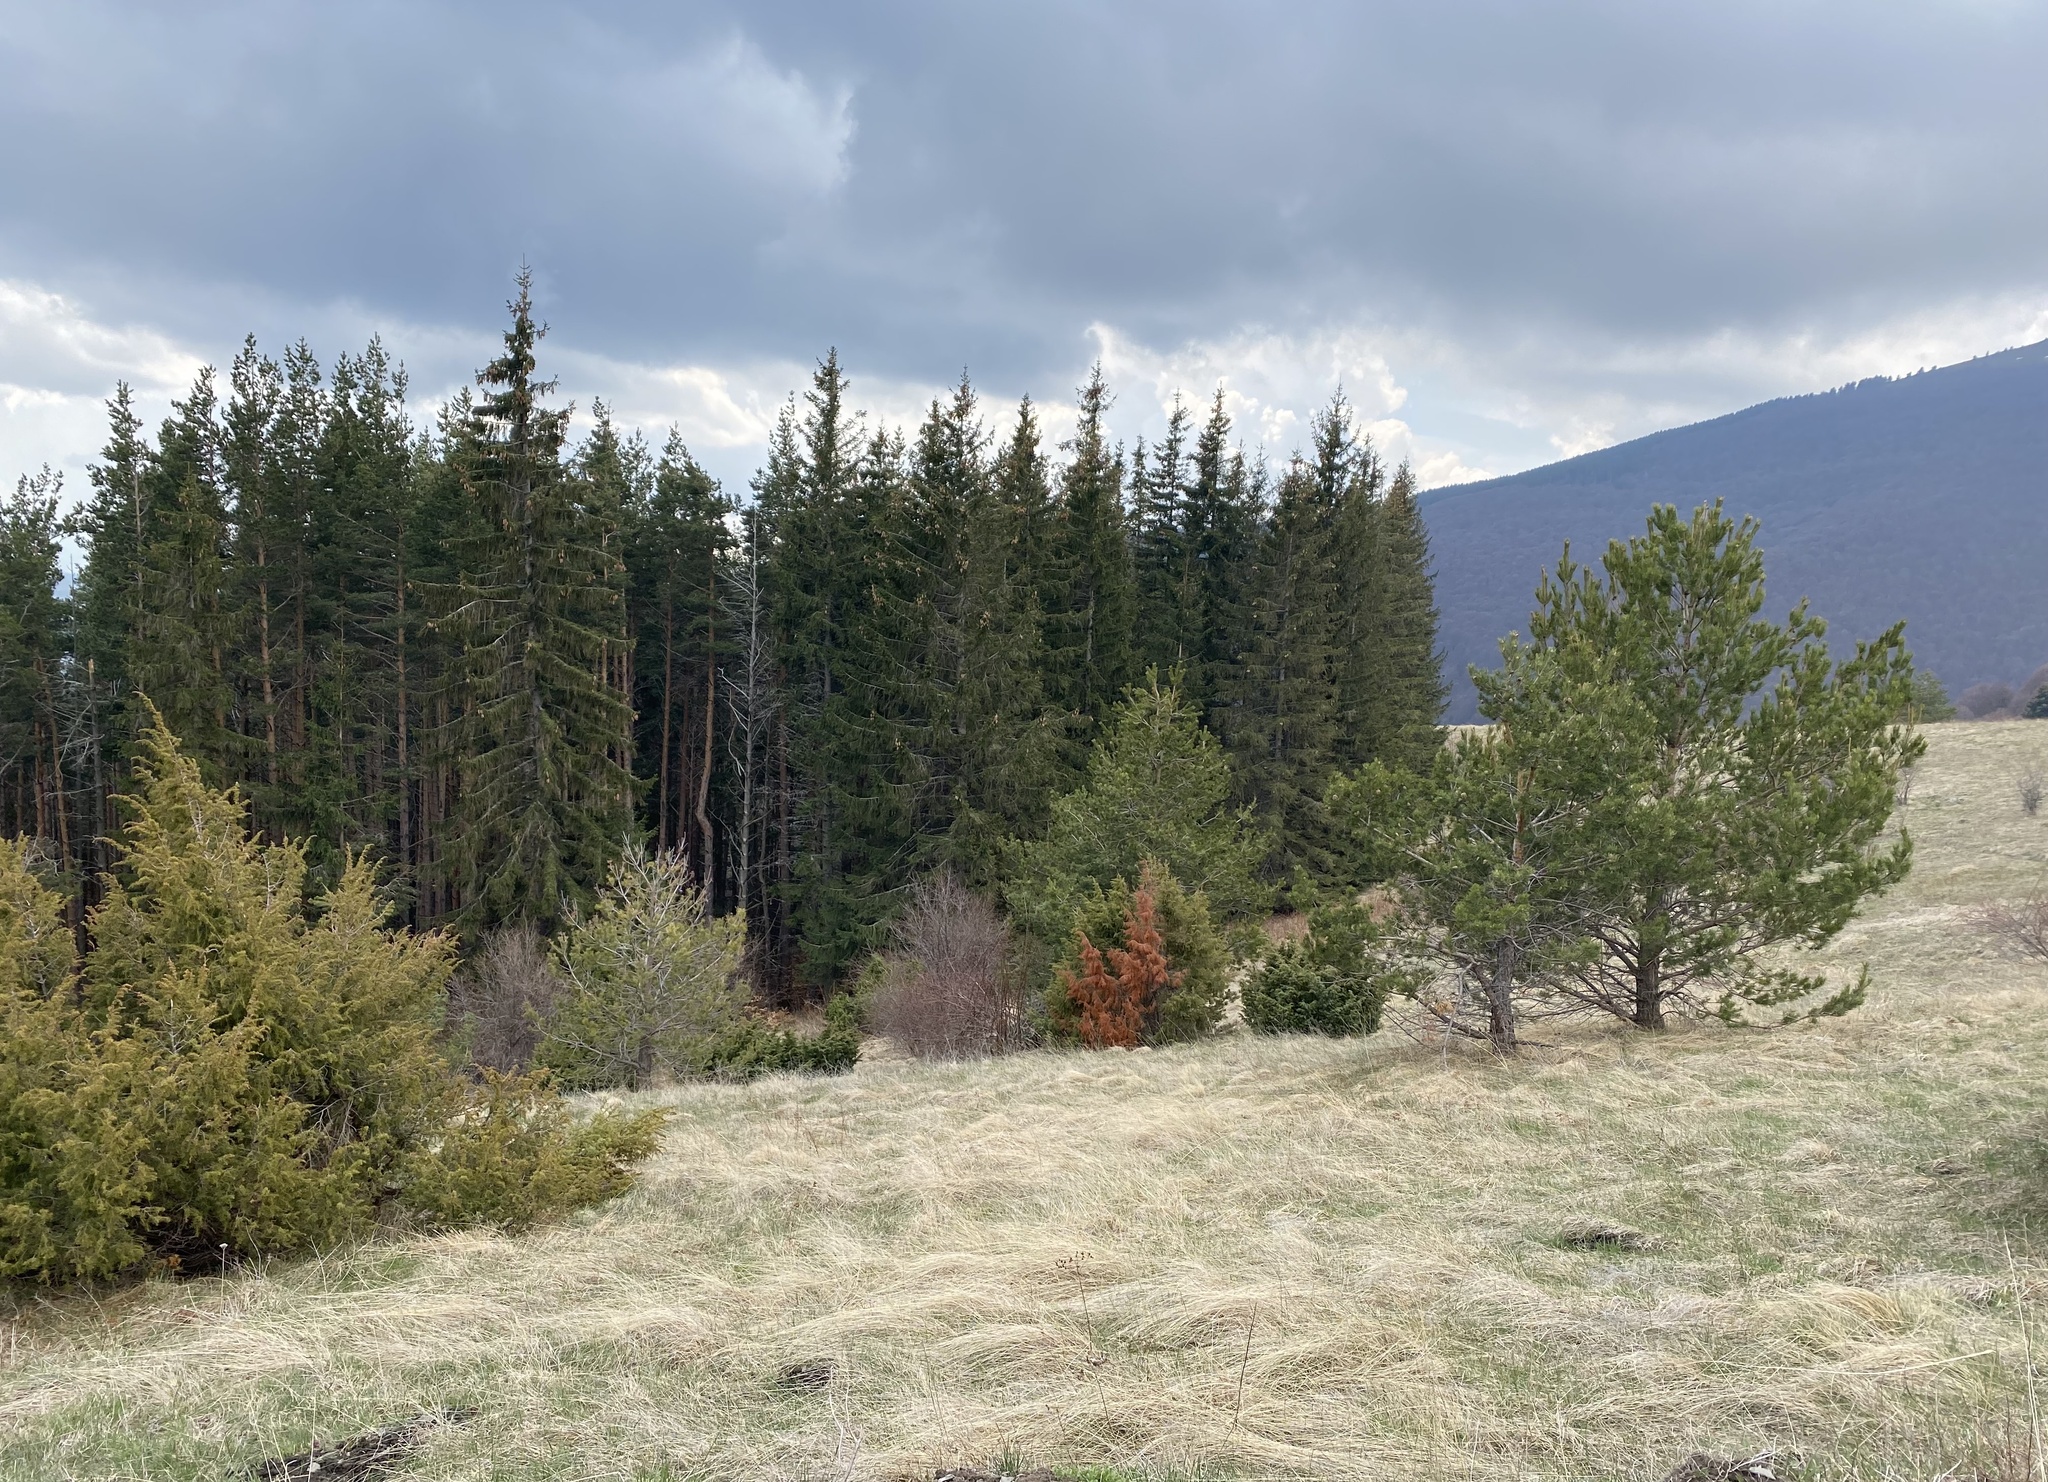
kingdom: Plantae
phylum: Tracheophyta
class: Pinopsida
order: Pinales
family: Pinaceae
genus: Pinus
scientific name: Pinus sylvestris
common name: Scots pine
